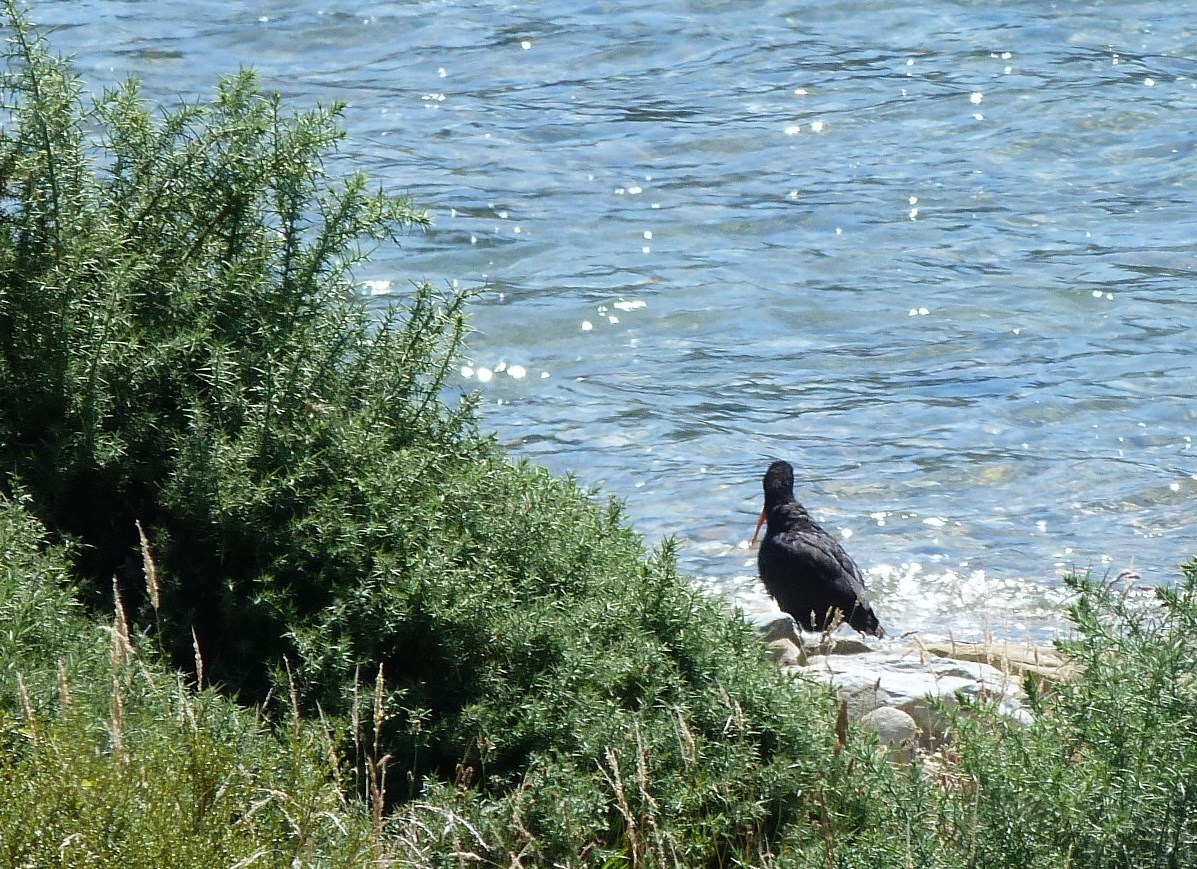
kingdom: Animalia
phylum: Chordata
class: Aves
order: Charadriiformes
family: Haematopodidae
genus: Haematopus
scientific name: Haematopus unicolor
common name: Variable oystercatcher
